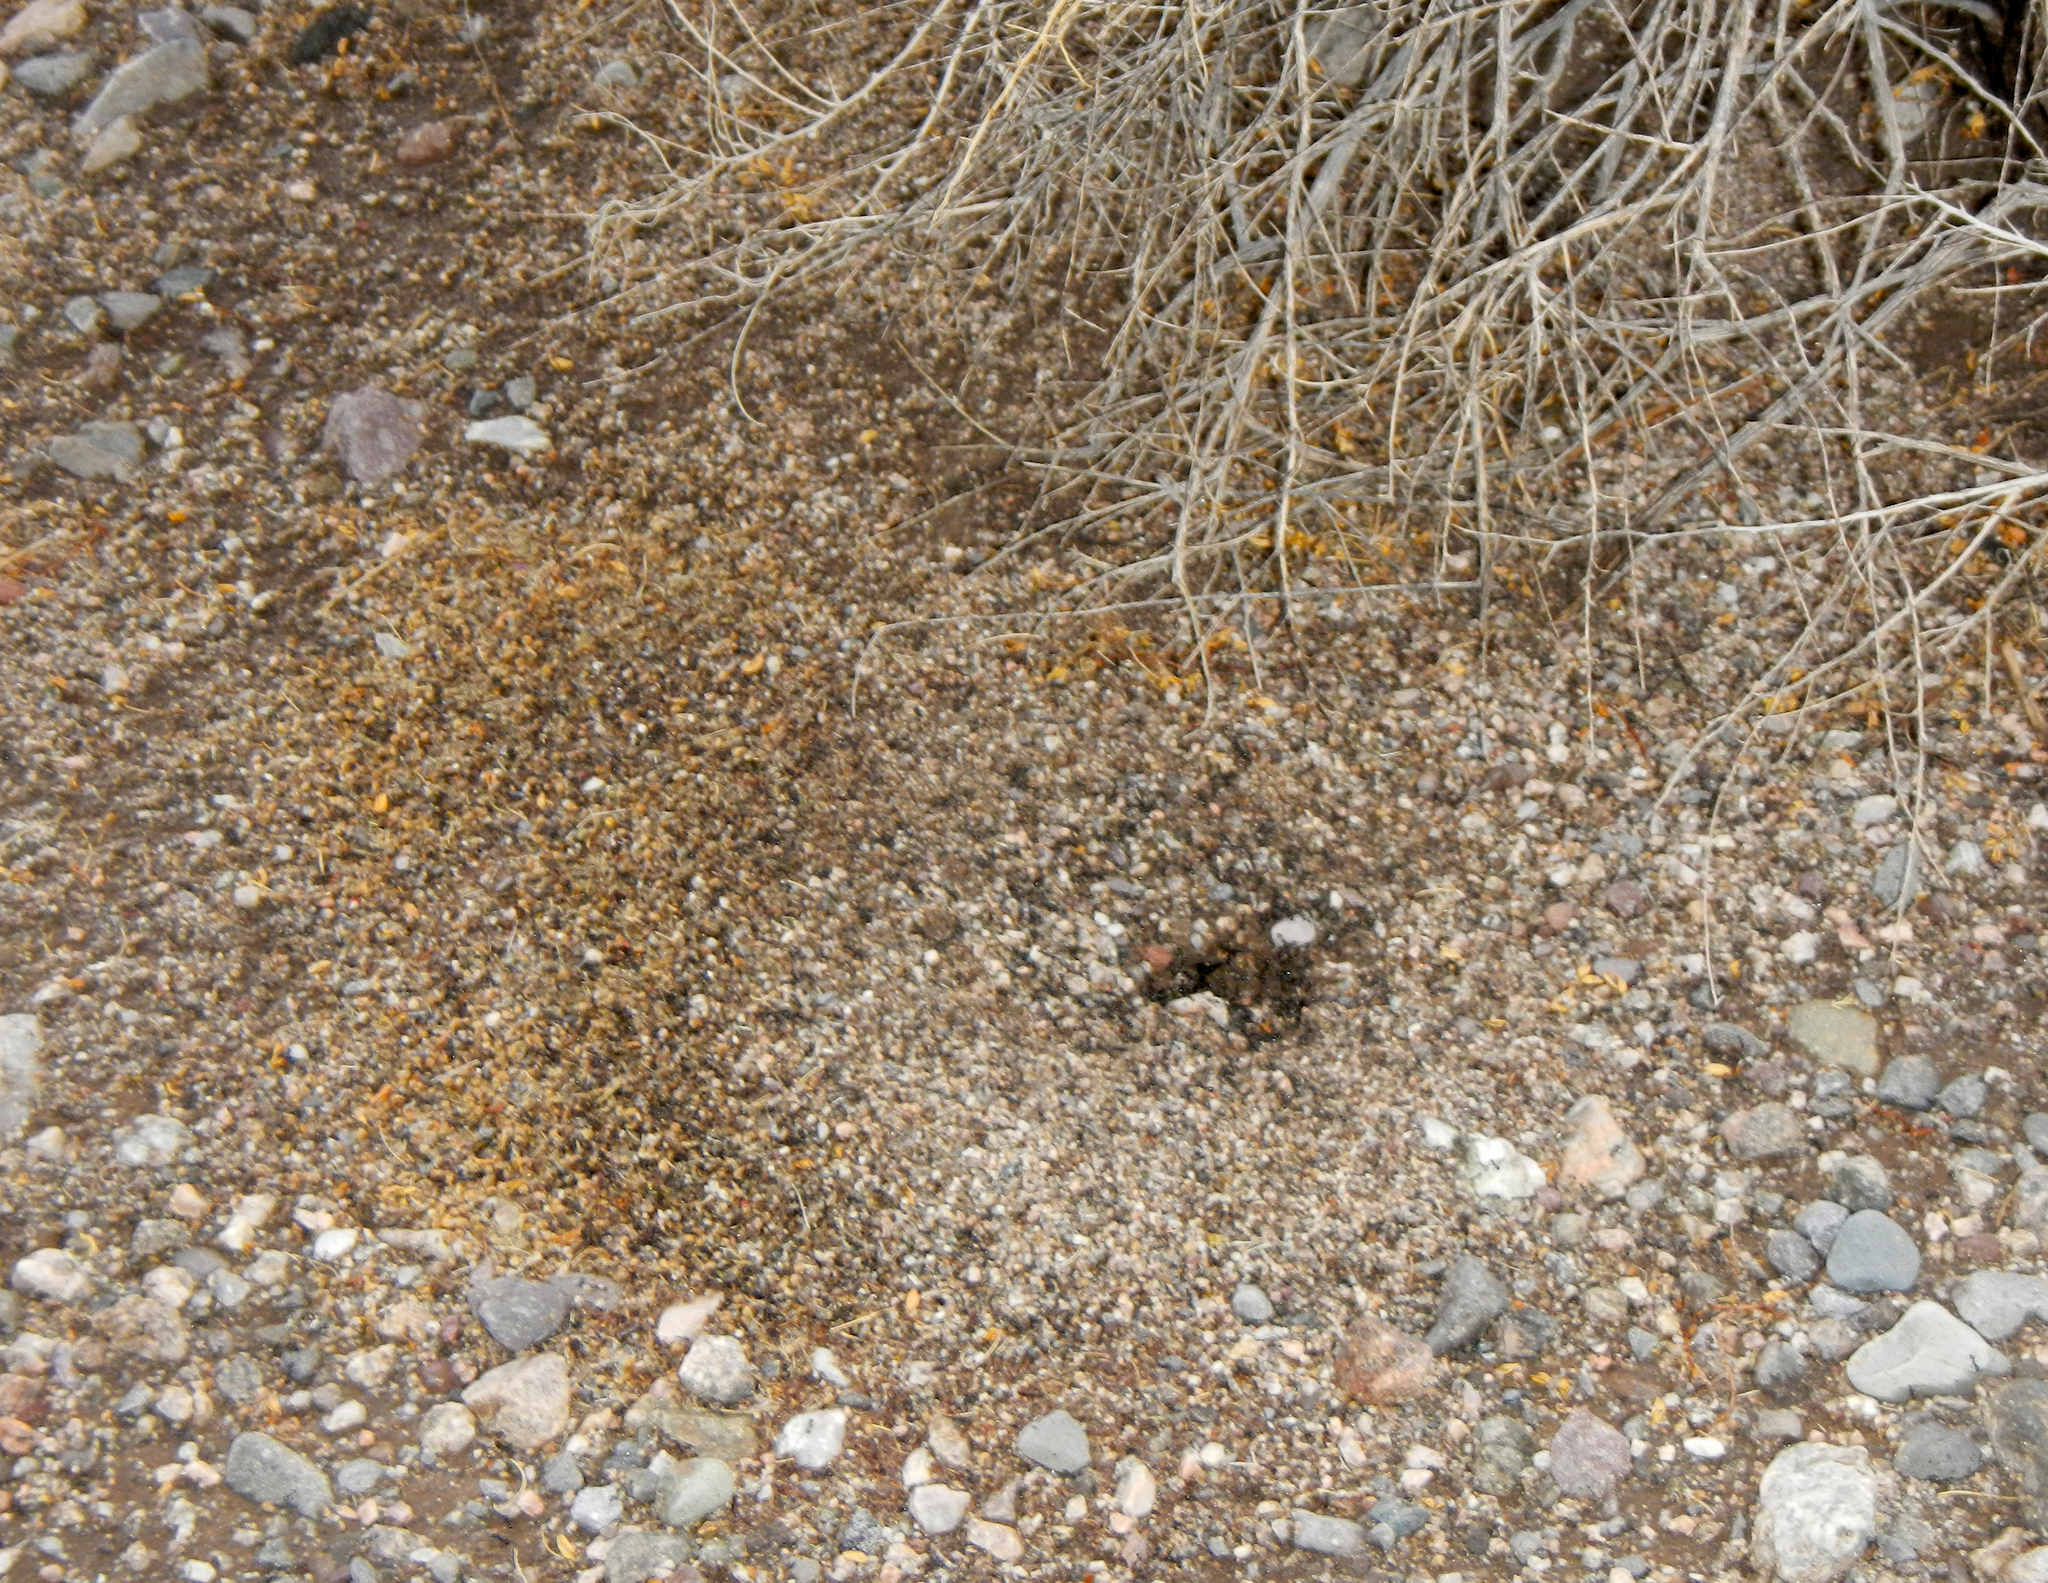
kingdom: Animalia
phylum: Arthropoda
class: Insecta
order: Hymenoptera
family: Formicidae
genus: Messor
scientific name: Messor pergandei
